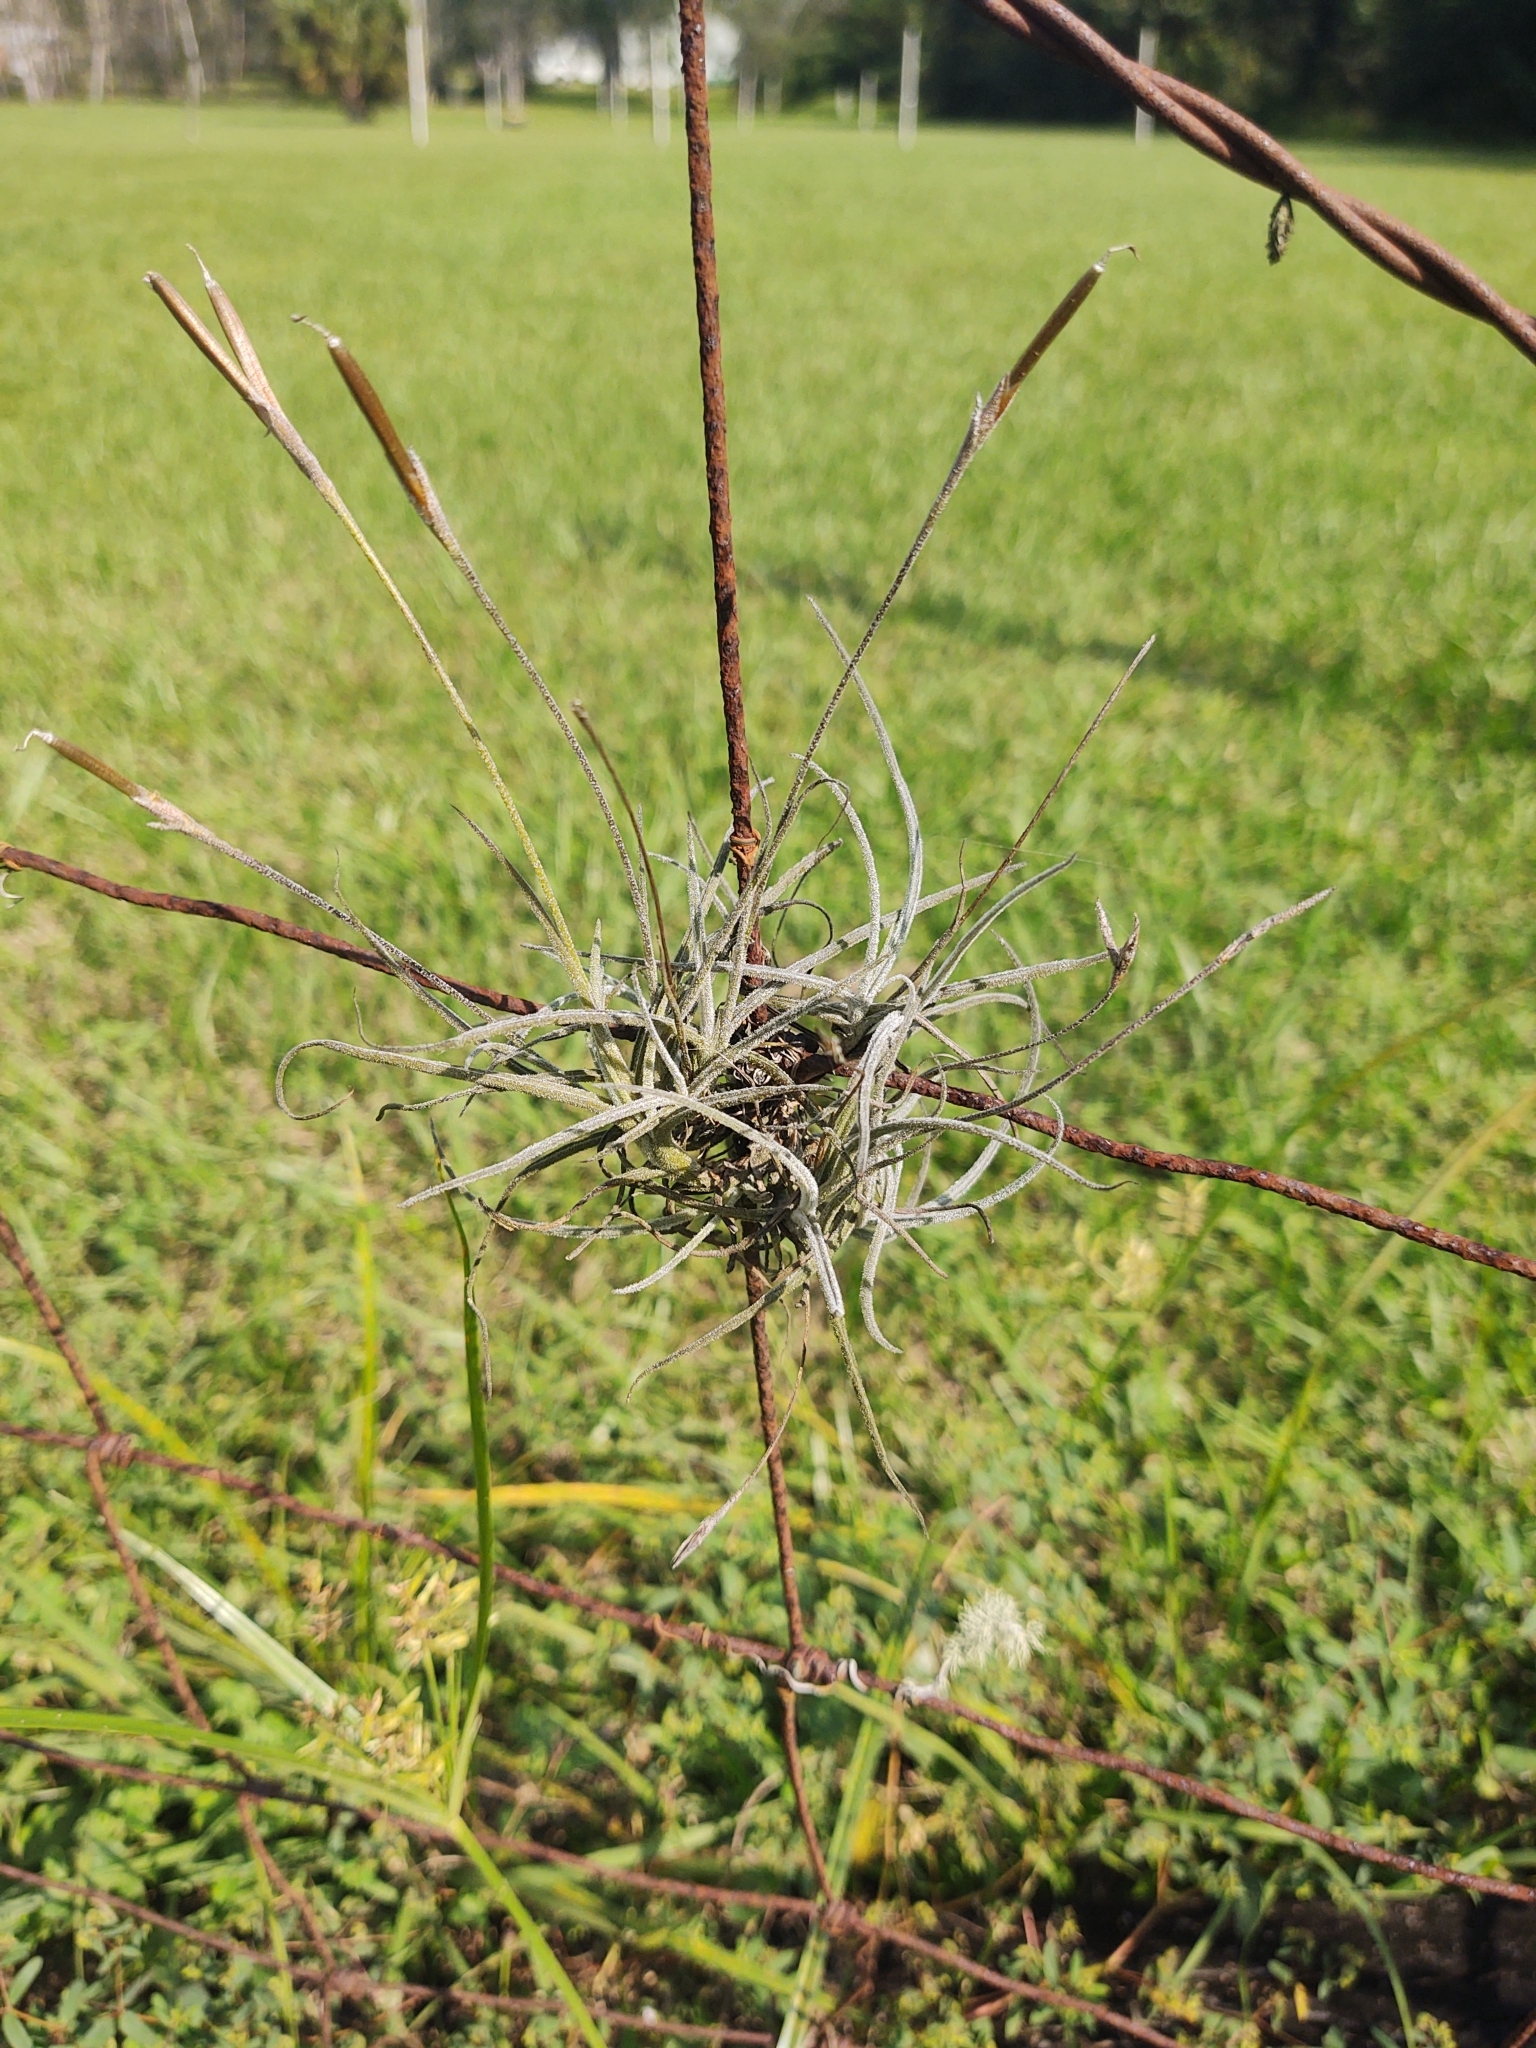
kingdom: Plantae
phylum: Tracheophyta
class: Liliopsida
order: Poales
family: Bromeliaceae
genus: Tillandsia
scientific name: Tillandsia recurvata
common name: Small ballmoss
